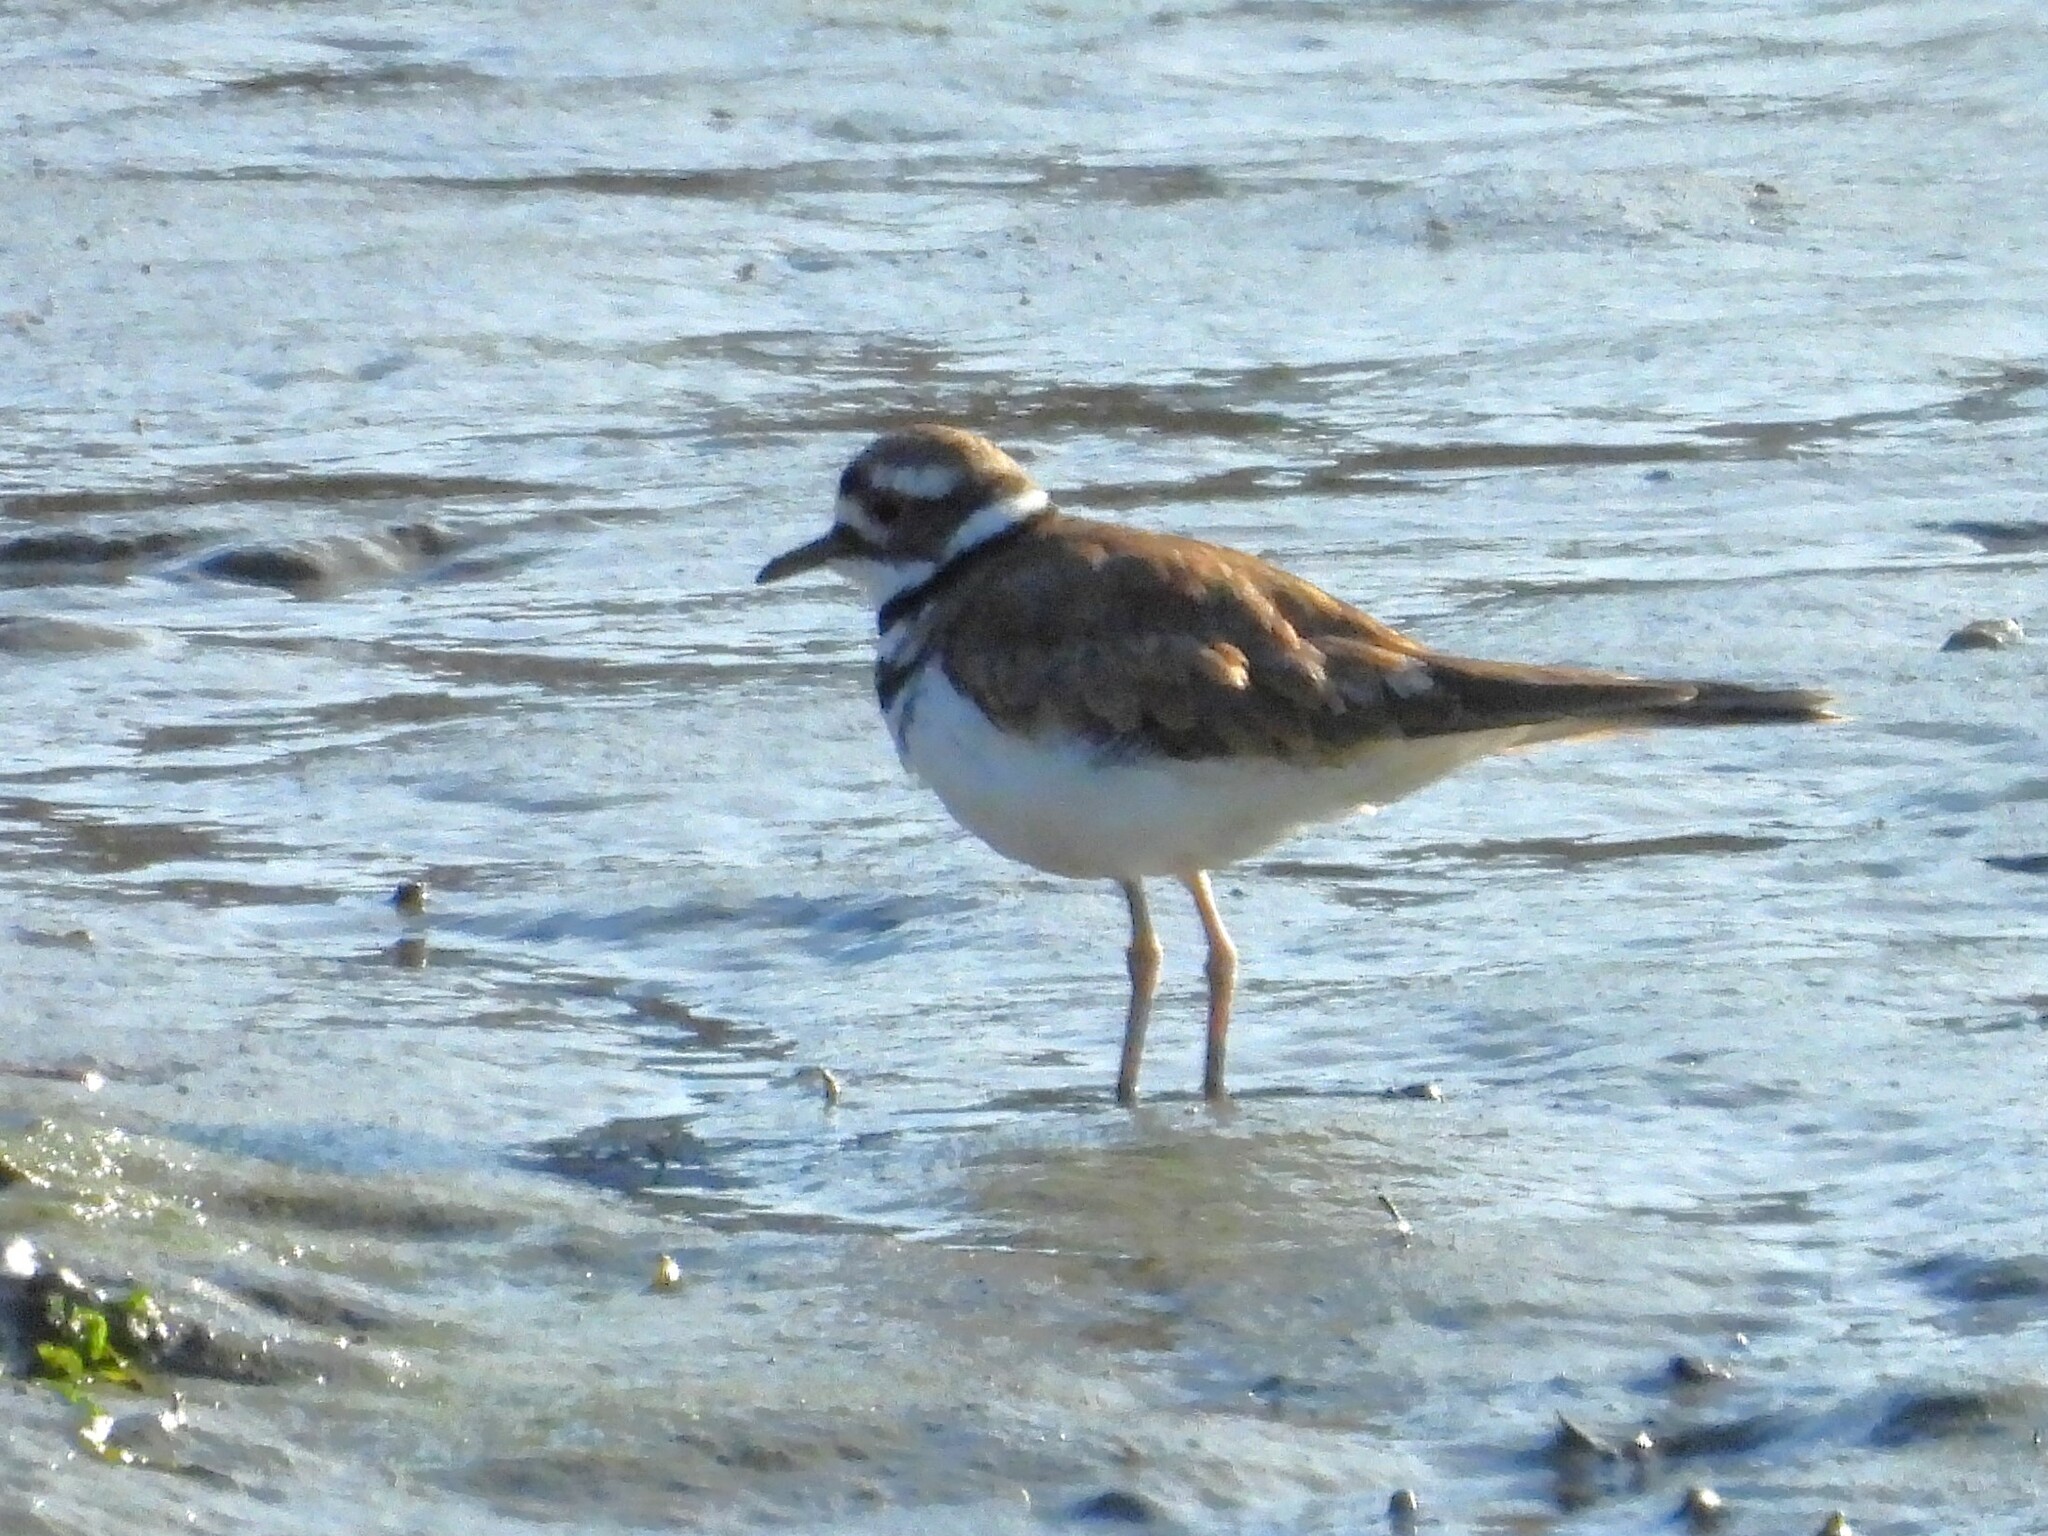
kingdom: Animalia
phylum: Chordata
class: Aves
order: Charadriiformes
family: Charadriidae
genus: Charadrius
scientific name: Charadrius vociferus
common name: Killdeer
